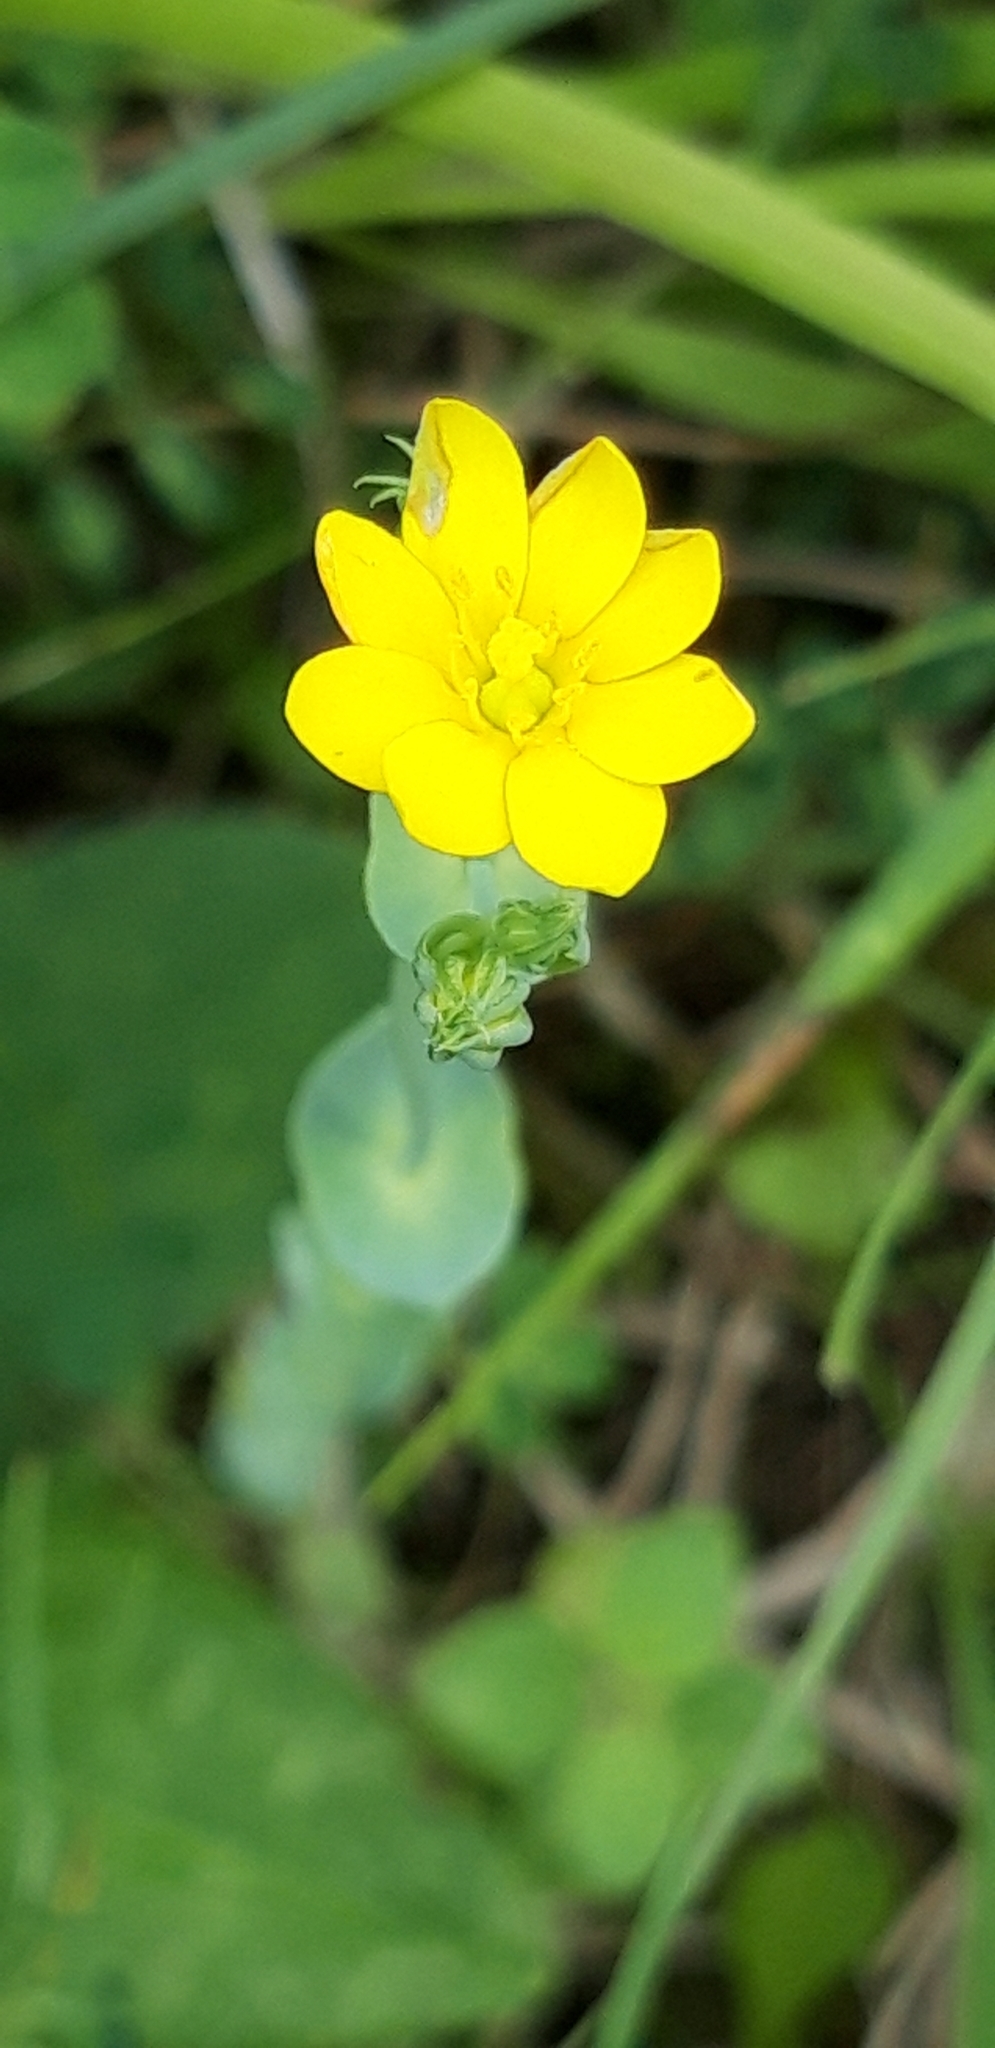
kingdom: Plantae
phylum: Tracheophyta
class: Magnoliopsida
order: Gentianales
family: Gentianaceae
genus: Blackstonia
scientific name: Blackstonia perfoliata
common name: Yellow-wort
